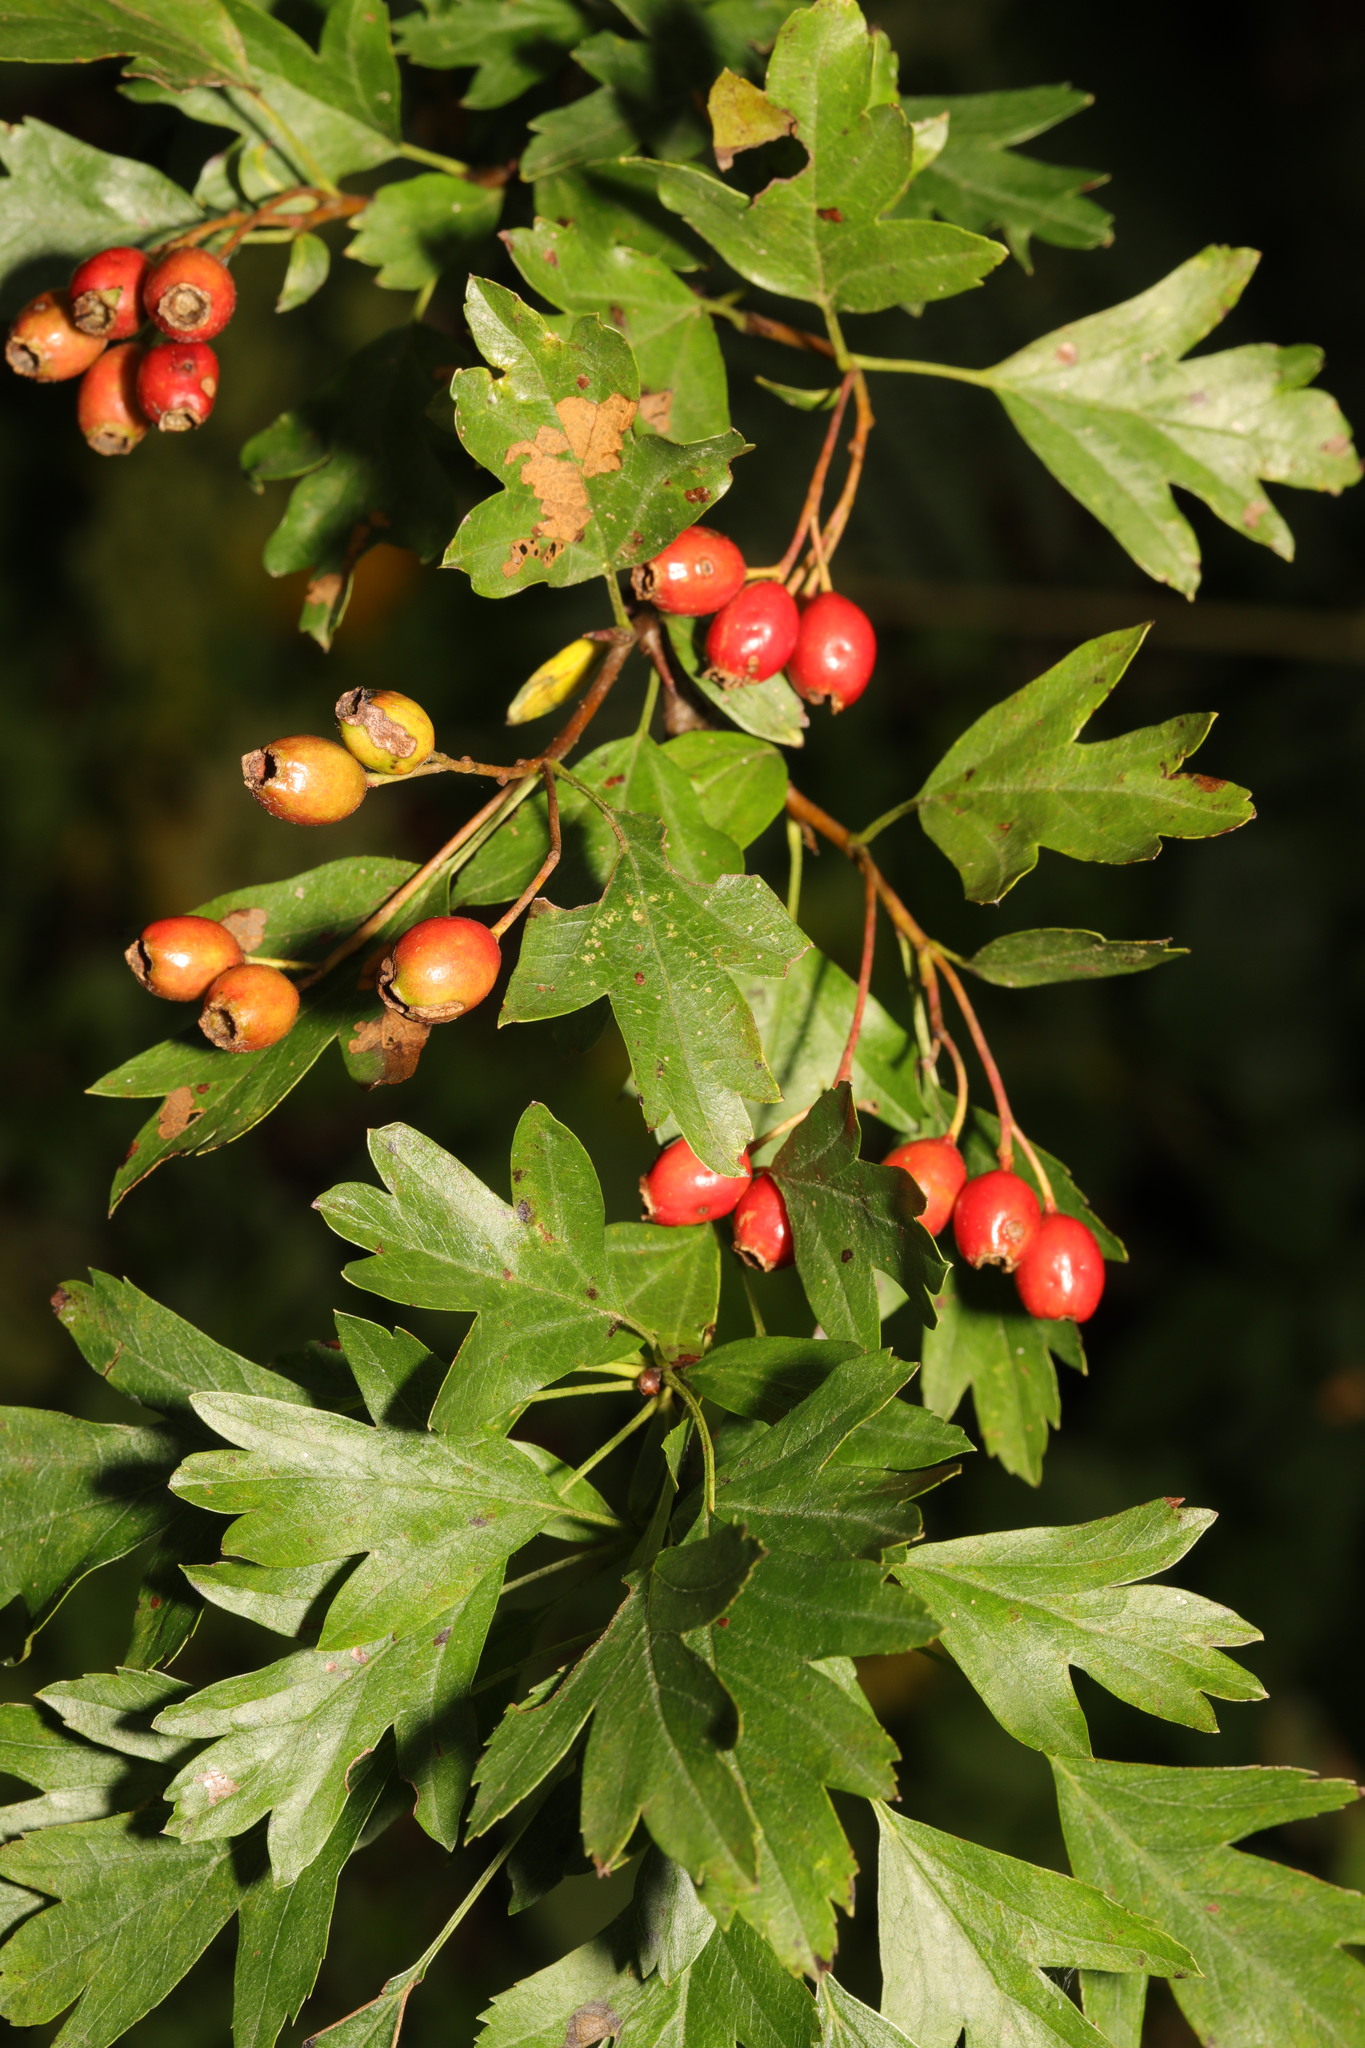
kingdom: Plantae
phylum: Tracheophyta
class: Magnoliopsida
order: Rosales
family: Rosaceae
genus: Crataegus
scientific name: Crataegus monogyna
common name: Hawthorn
